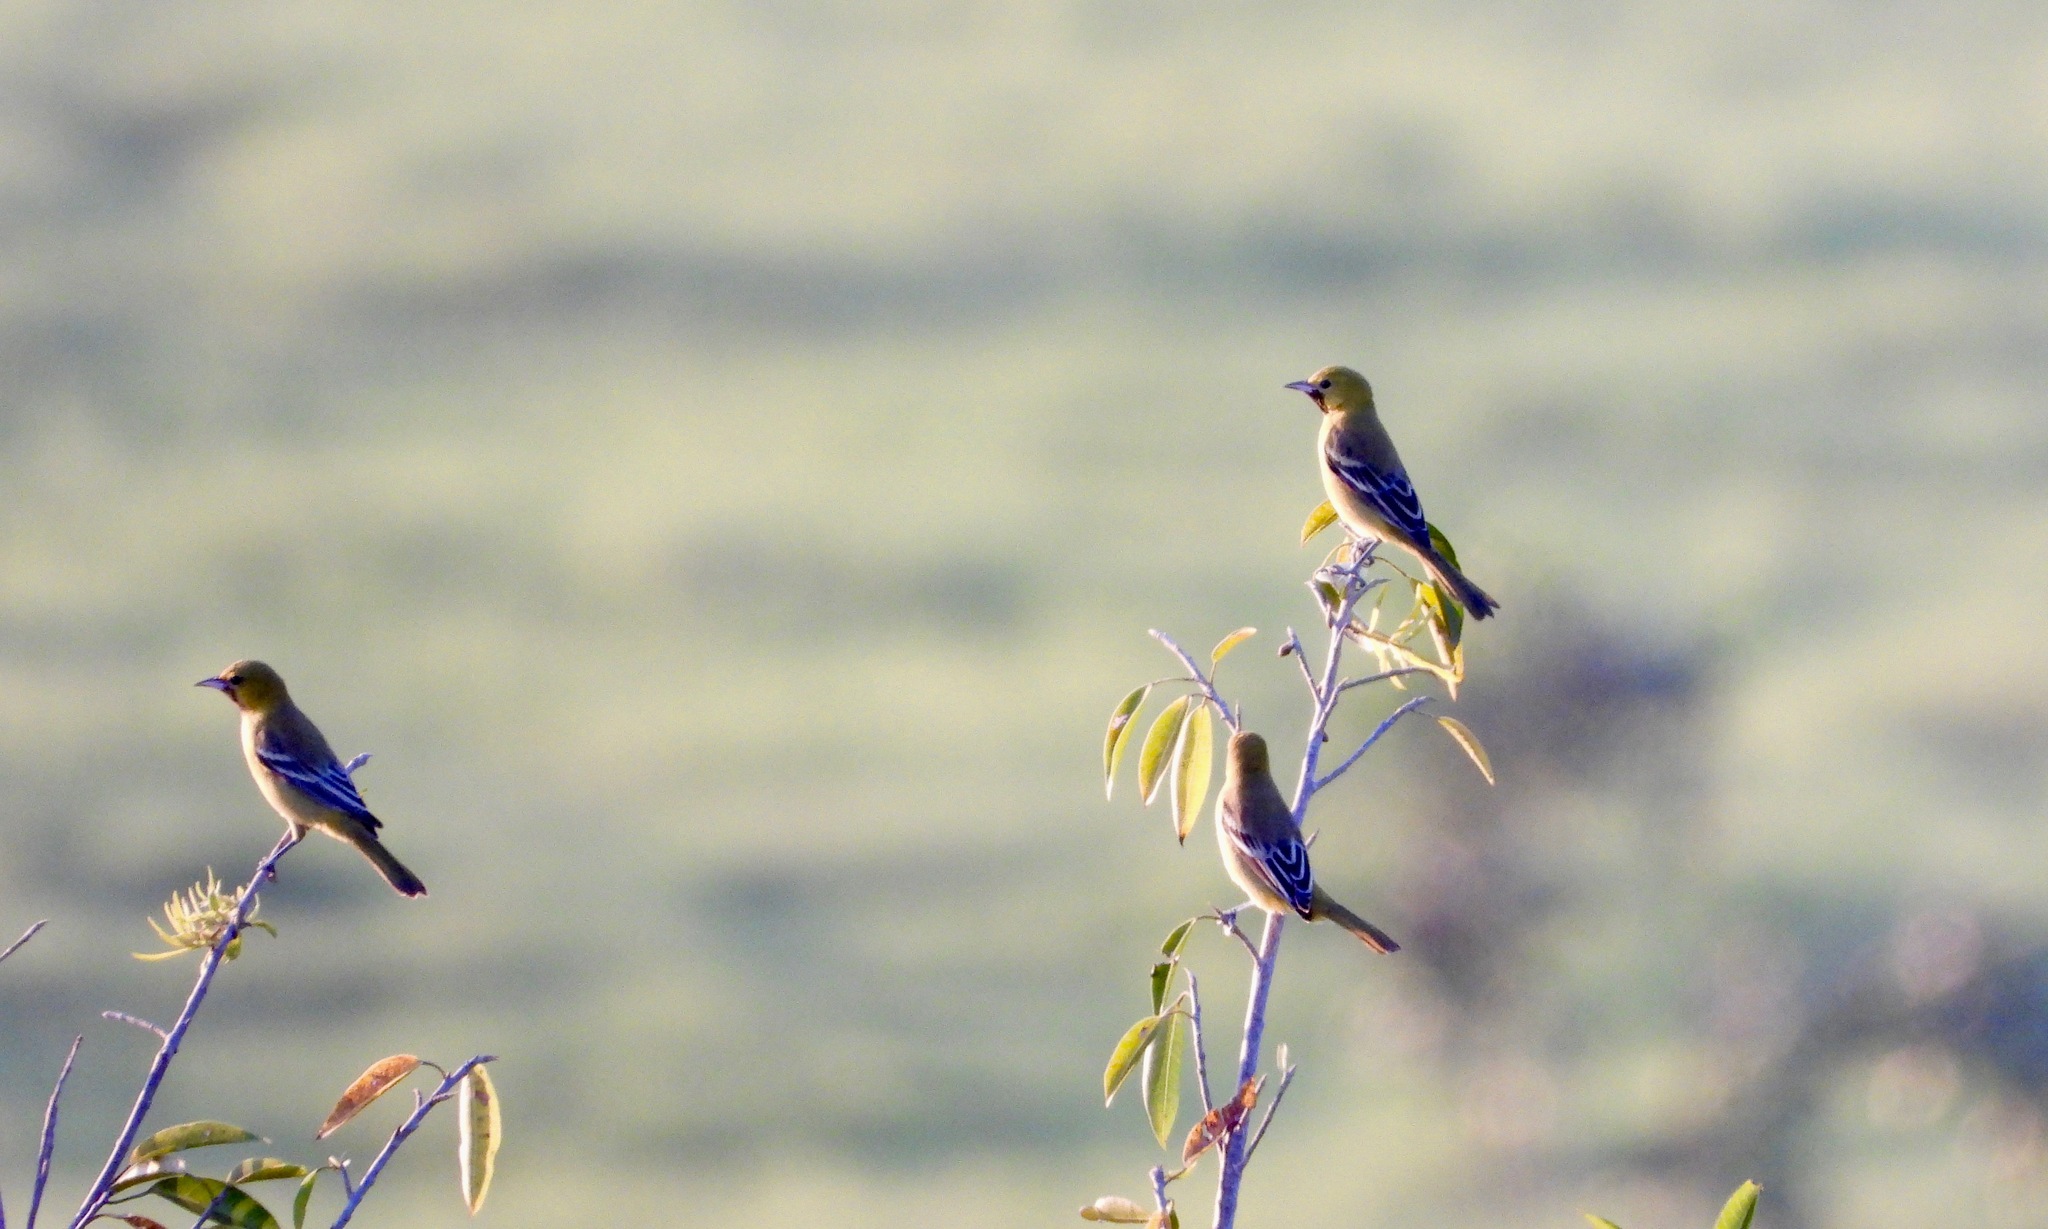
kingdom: Animalia
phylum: Chordata
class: Aves
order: Passeriformes
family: Icteridae
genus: Icterus
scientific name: Icterus spurius
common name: Orchard oriole
